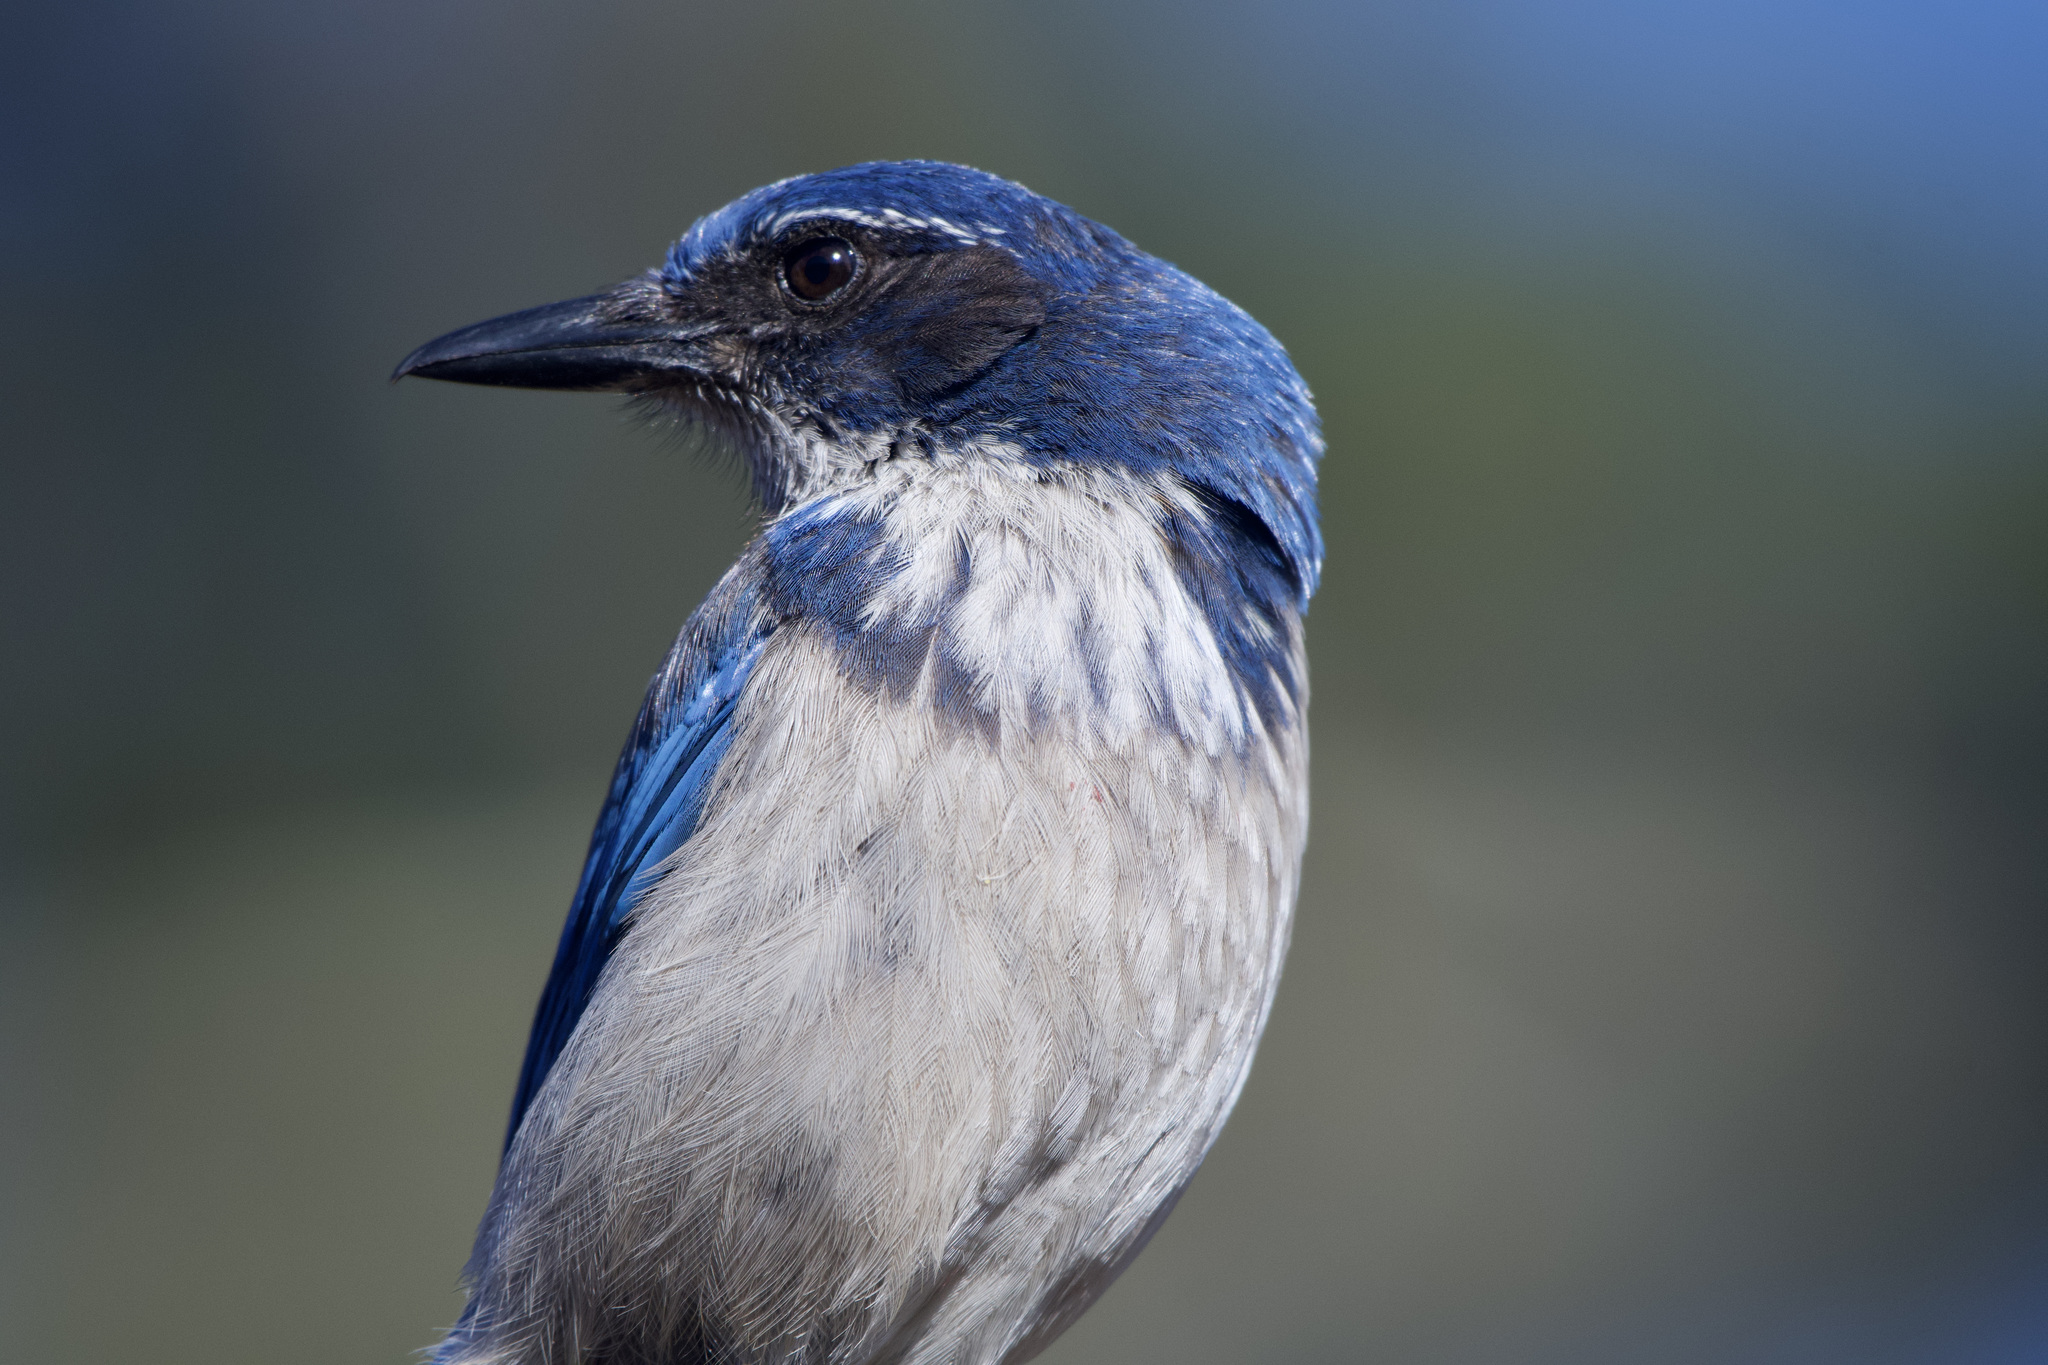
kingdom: Animalia
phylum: Chordata
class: Aves
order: Passeriformes
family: Corvidae
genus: Aphelocoma
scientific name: Aphelocoma californica
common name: California scrub-jay
